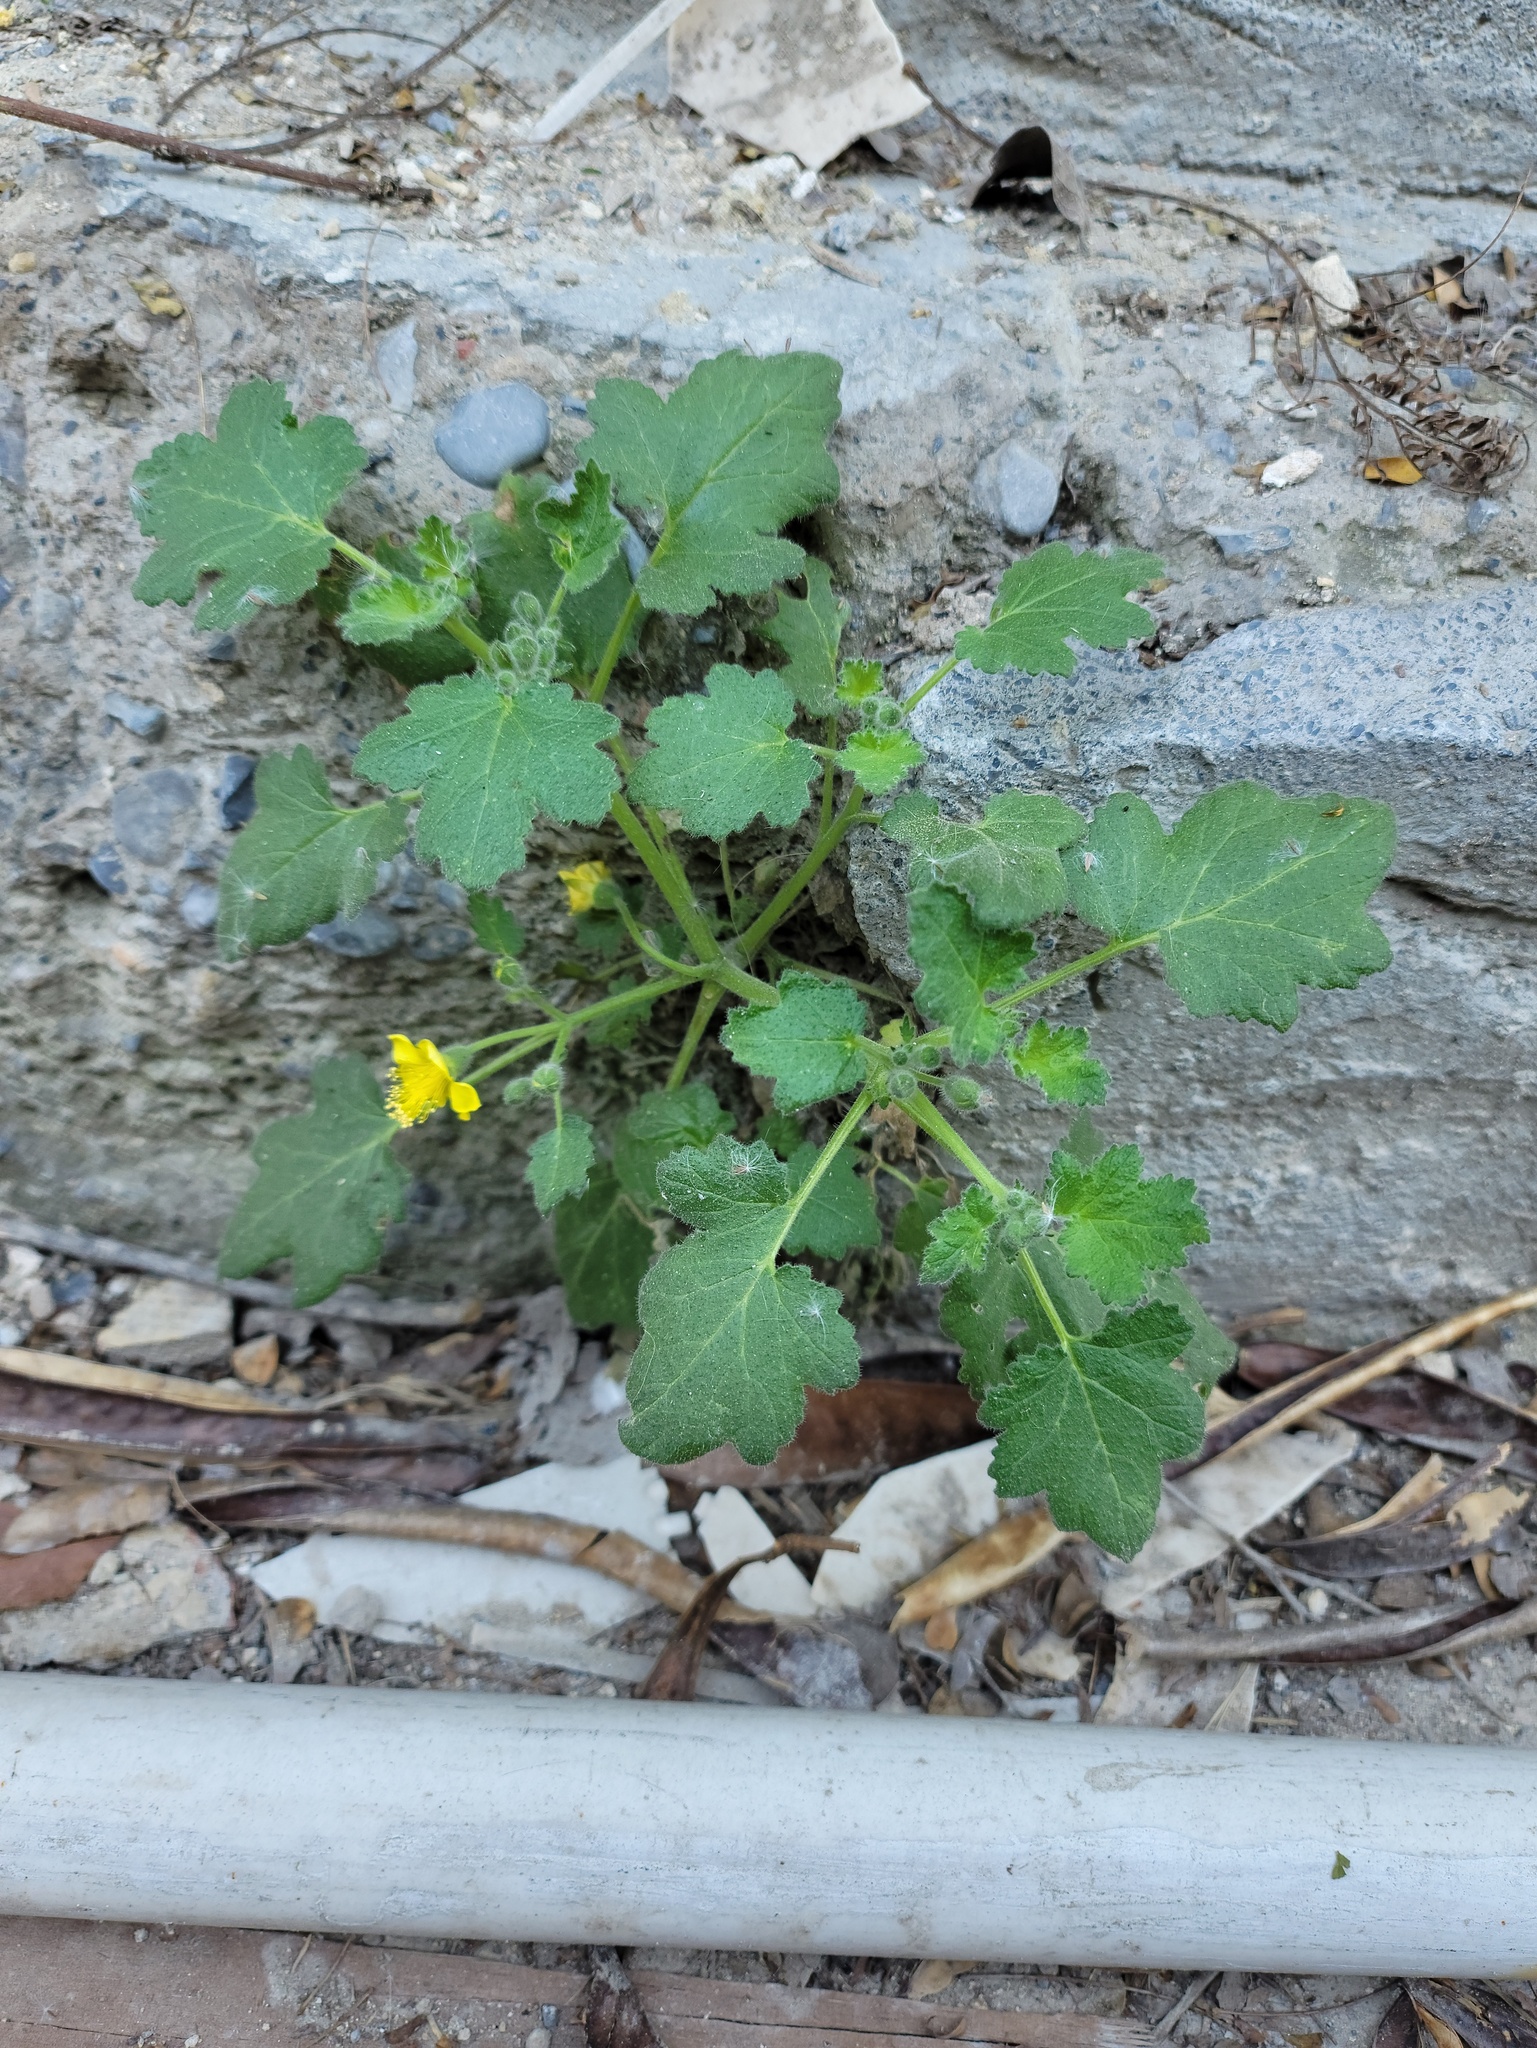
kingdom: Plantae
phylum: Tracheophyta
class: Magnoliopsida
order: Cornales
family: Loasaceae
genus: Eucnide
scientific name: Eucnide lobata
